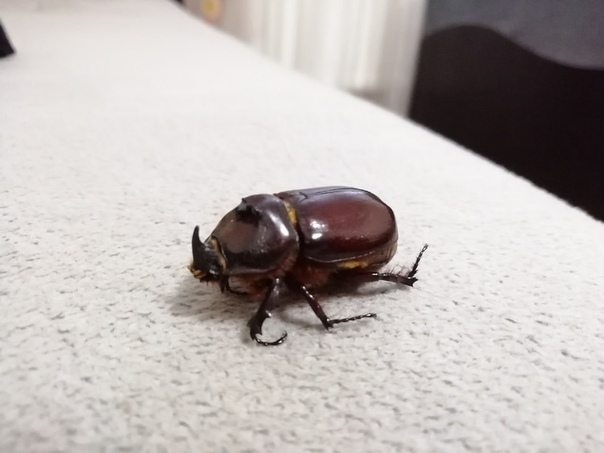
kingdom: Animalia
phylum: Arthropoda
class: Insecta
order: Coleoptera
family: Scarabaeidae
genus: Oryctes
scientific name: Oryctes nasicornis
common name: European rhinoceros beetle
